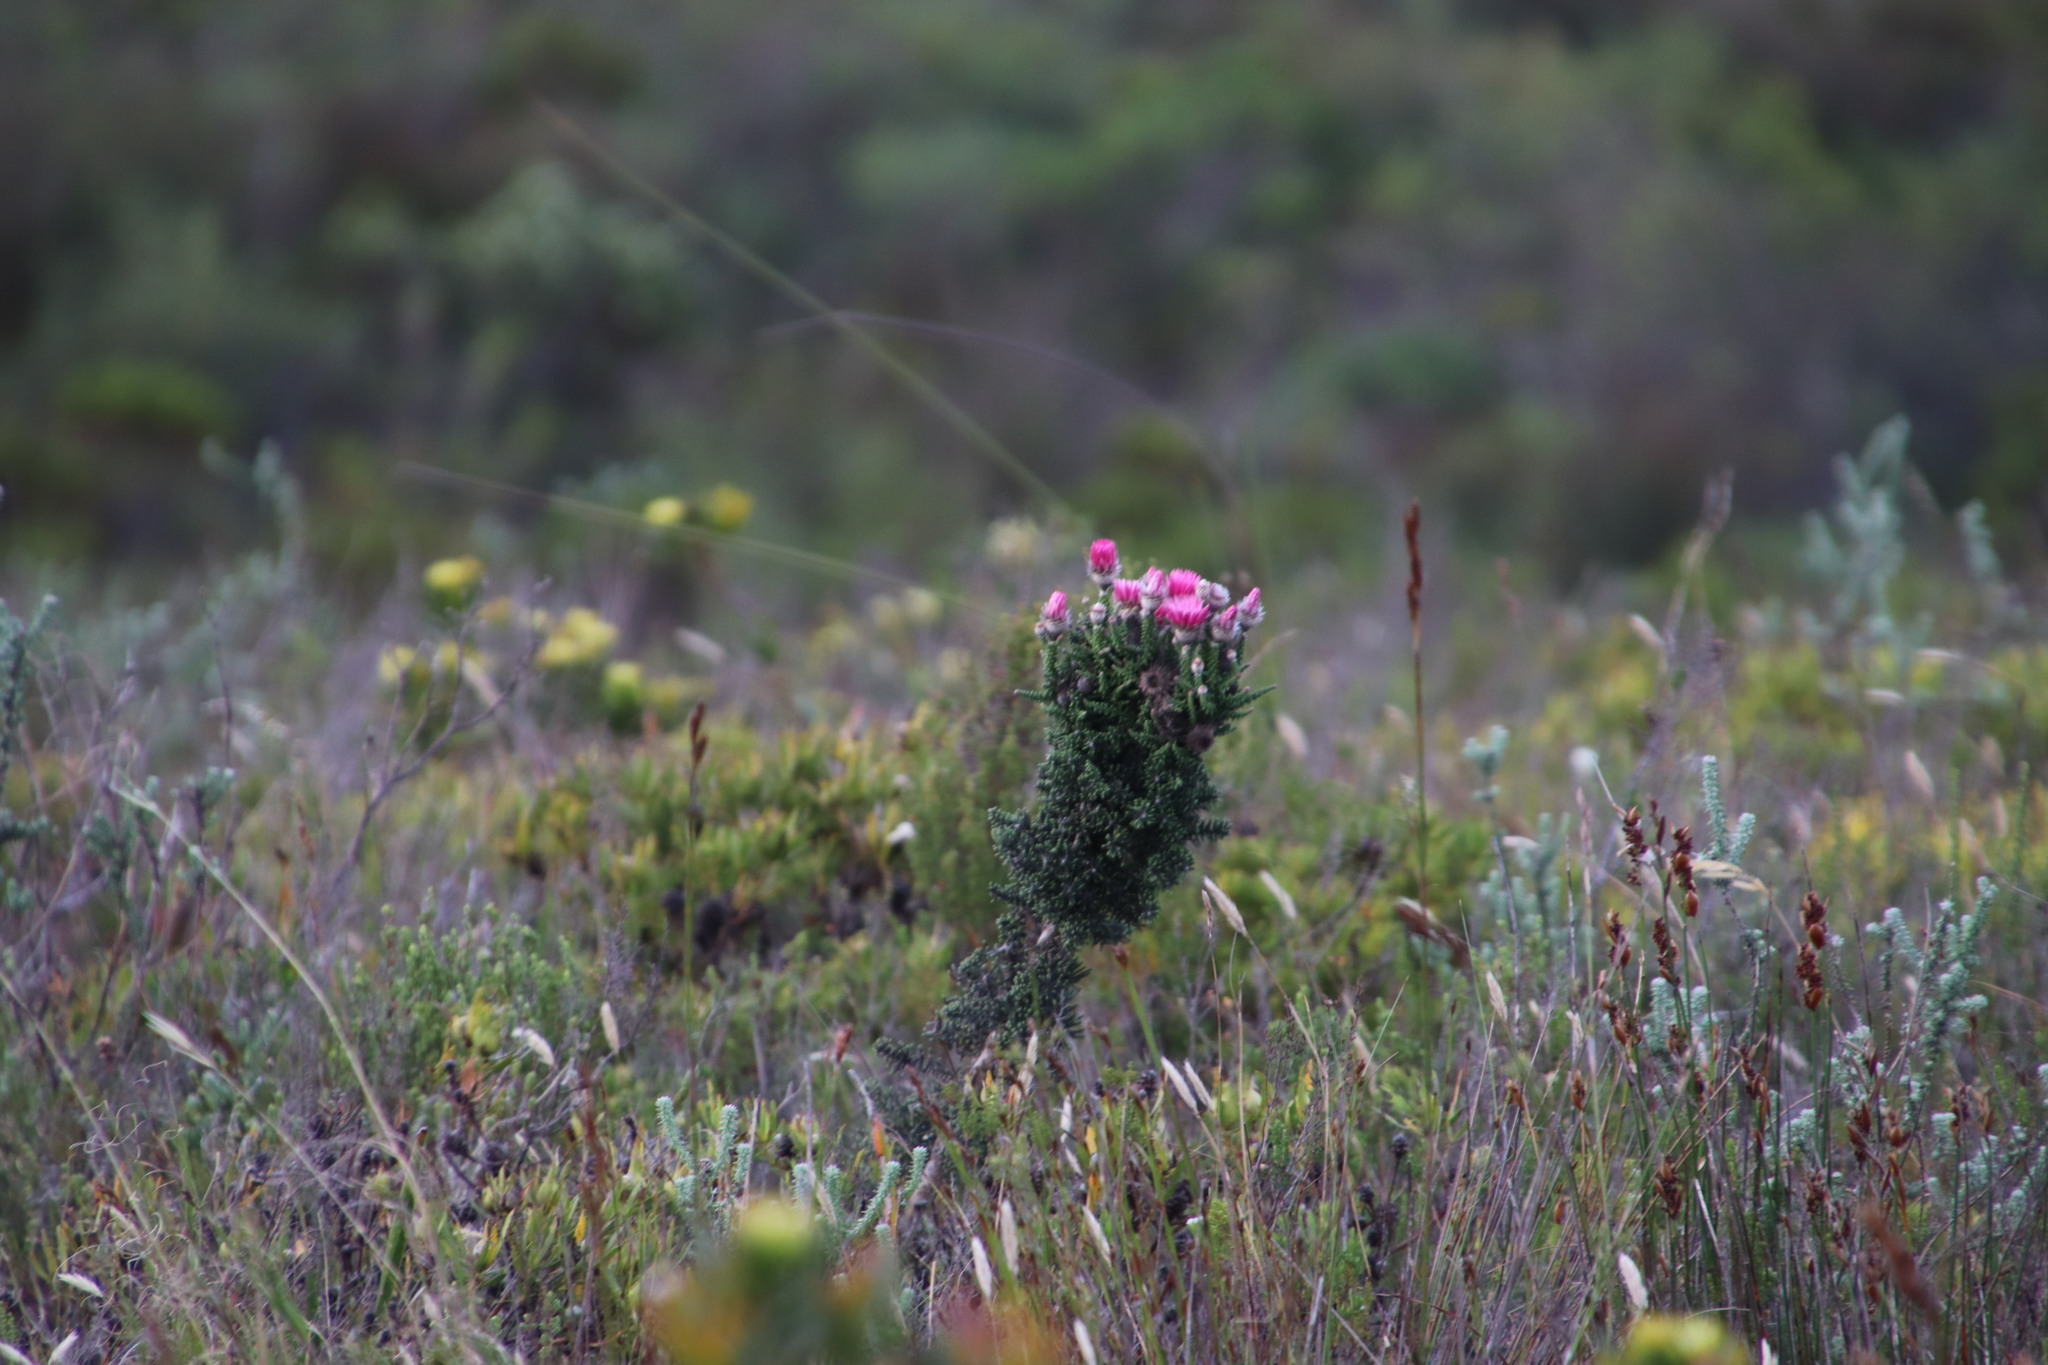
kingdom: Plantae
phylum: Tracheophyta
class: Magnoliopsida
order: Asterales
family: Asteraceae
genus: Phaenocoma
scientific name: Phaenocoma prolifera
